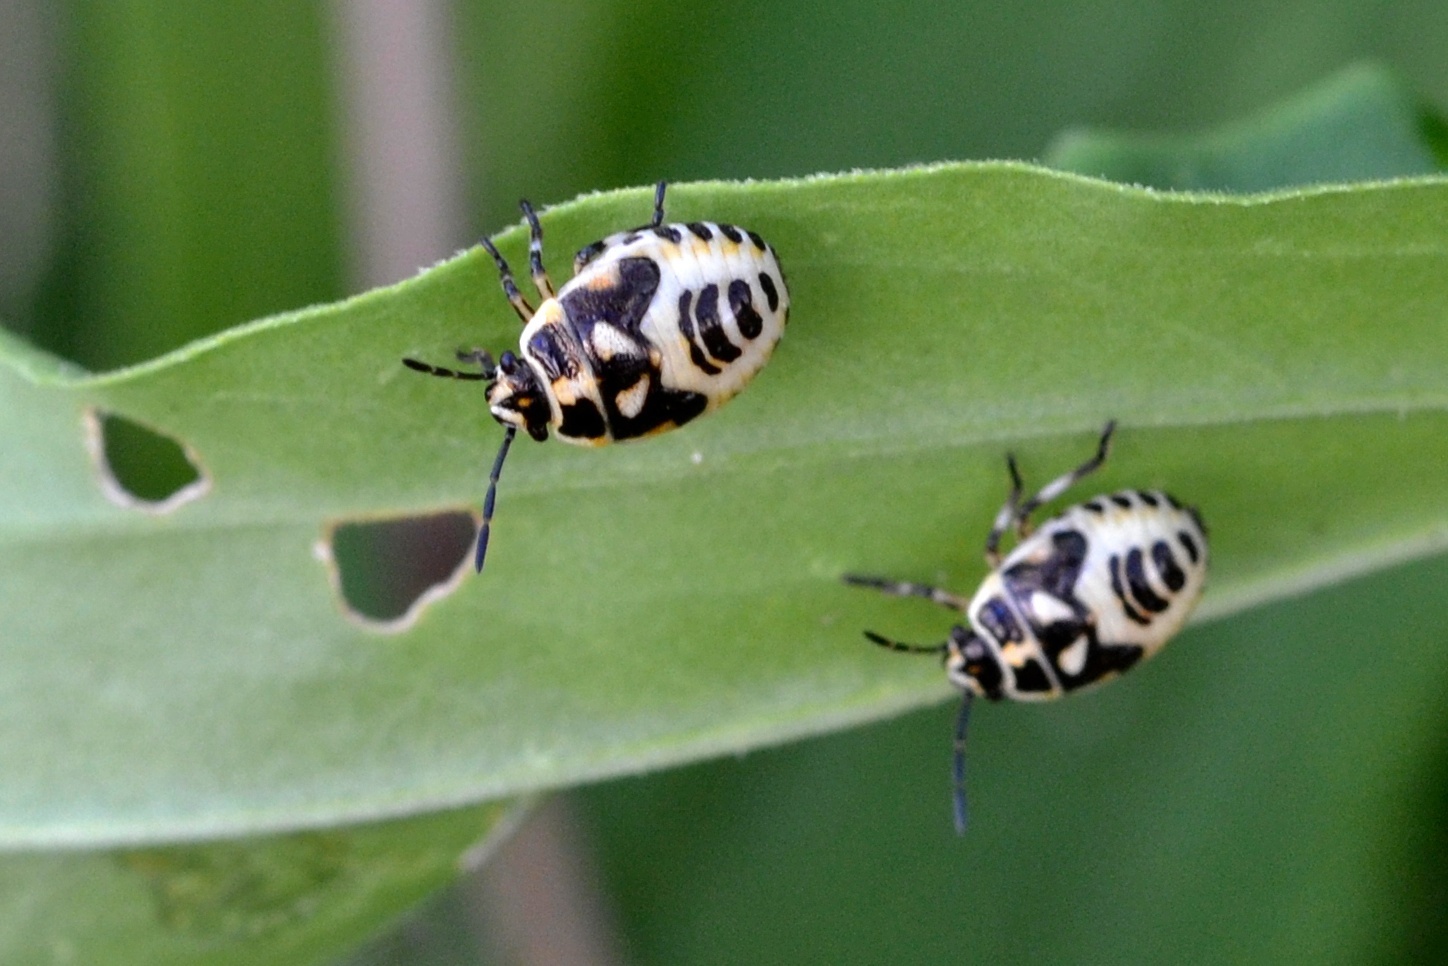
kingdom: Animalia
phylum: Arthropoda
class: Insecta
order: Hemiptera
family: Pentatomidae
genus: Eurydema
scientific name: Eurydema oleracea
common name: Cabbage bug
